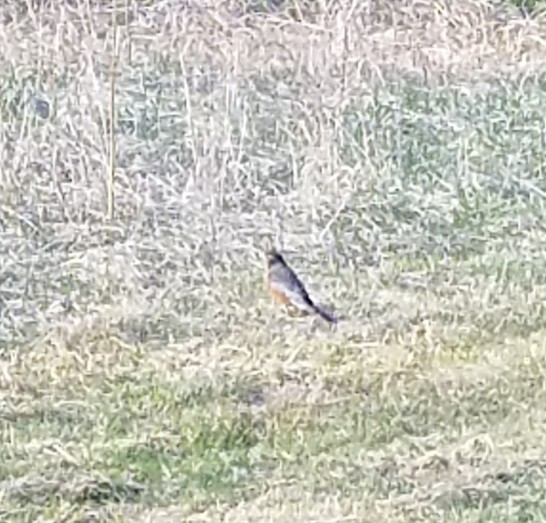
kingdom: Animalia
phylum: Chordata
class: Aves
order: Passeriformes
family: Turdidae
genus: Turdus
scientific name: Turdus migratorius
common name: American robin
